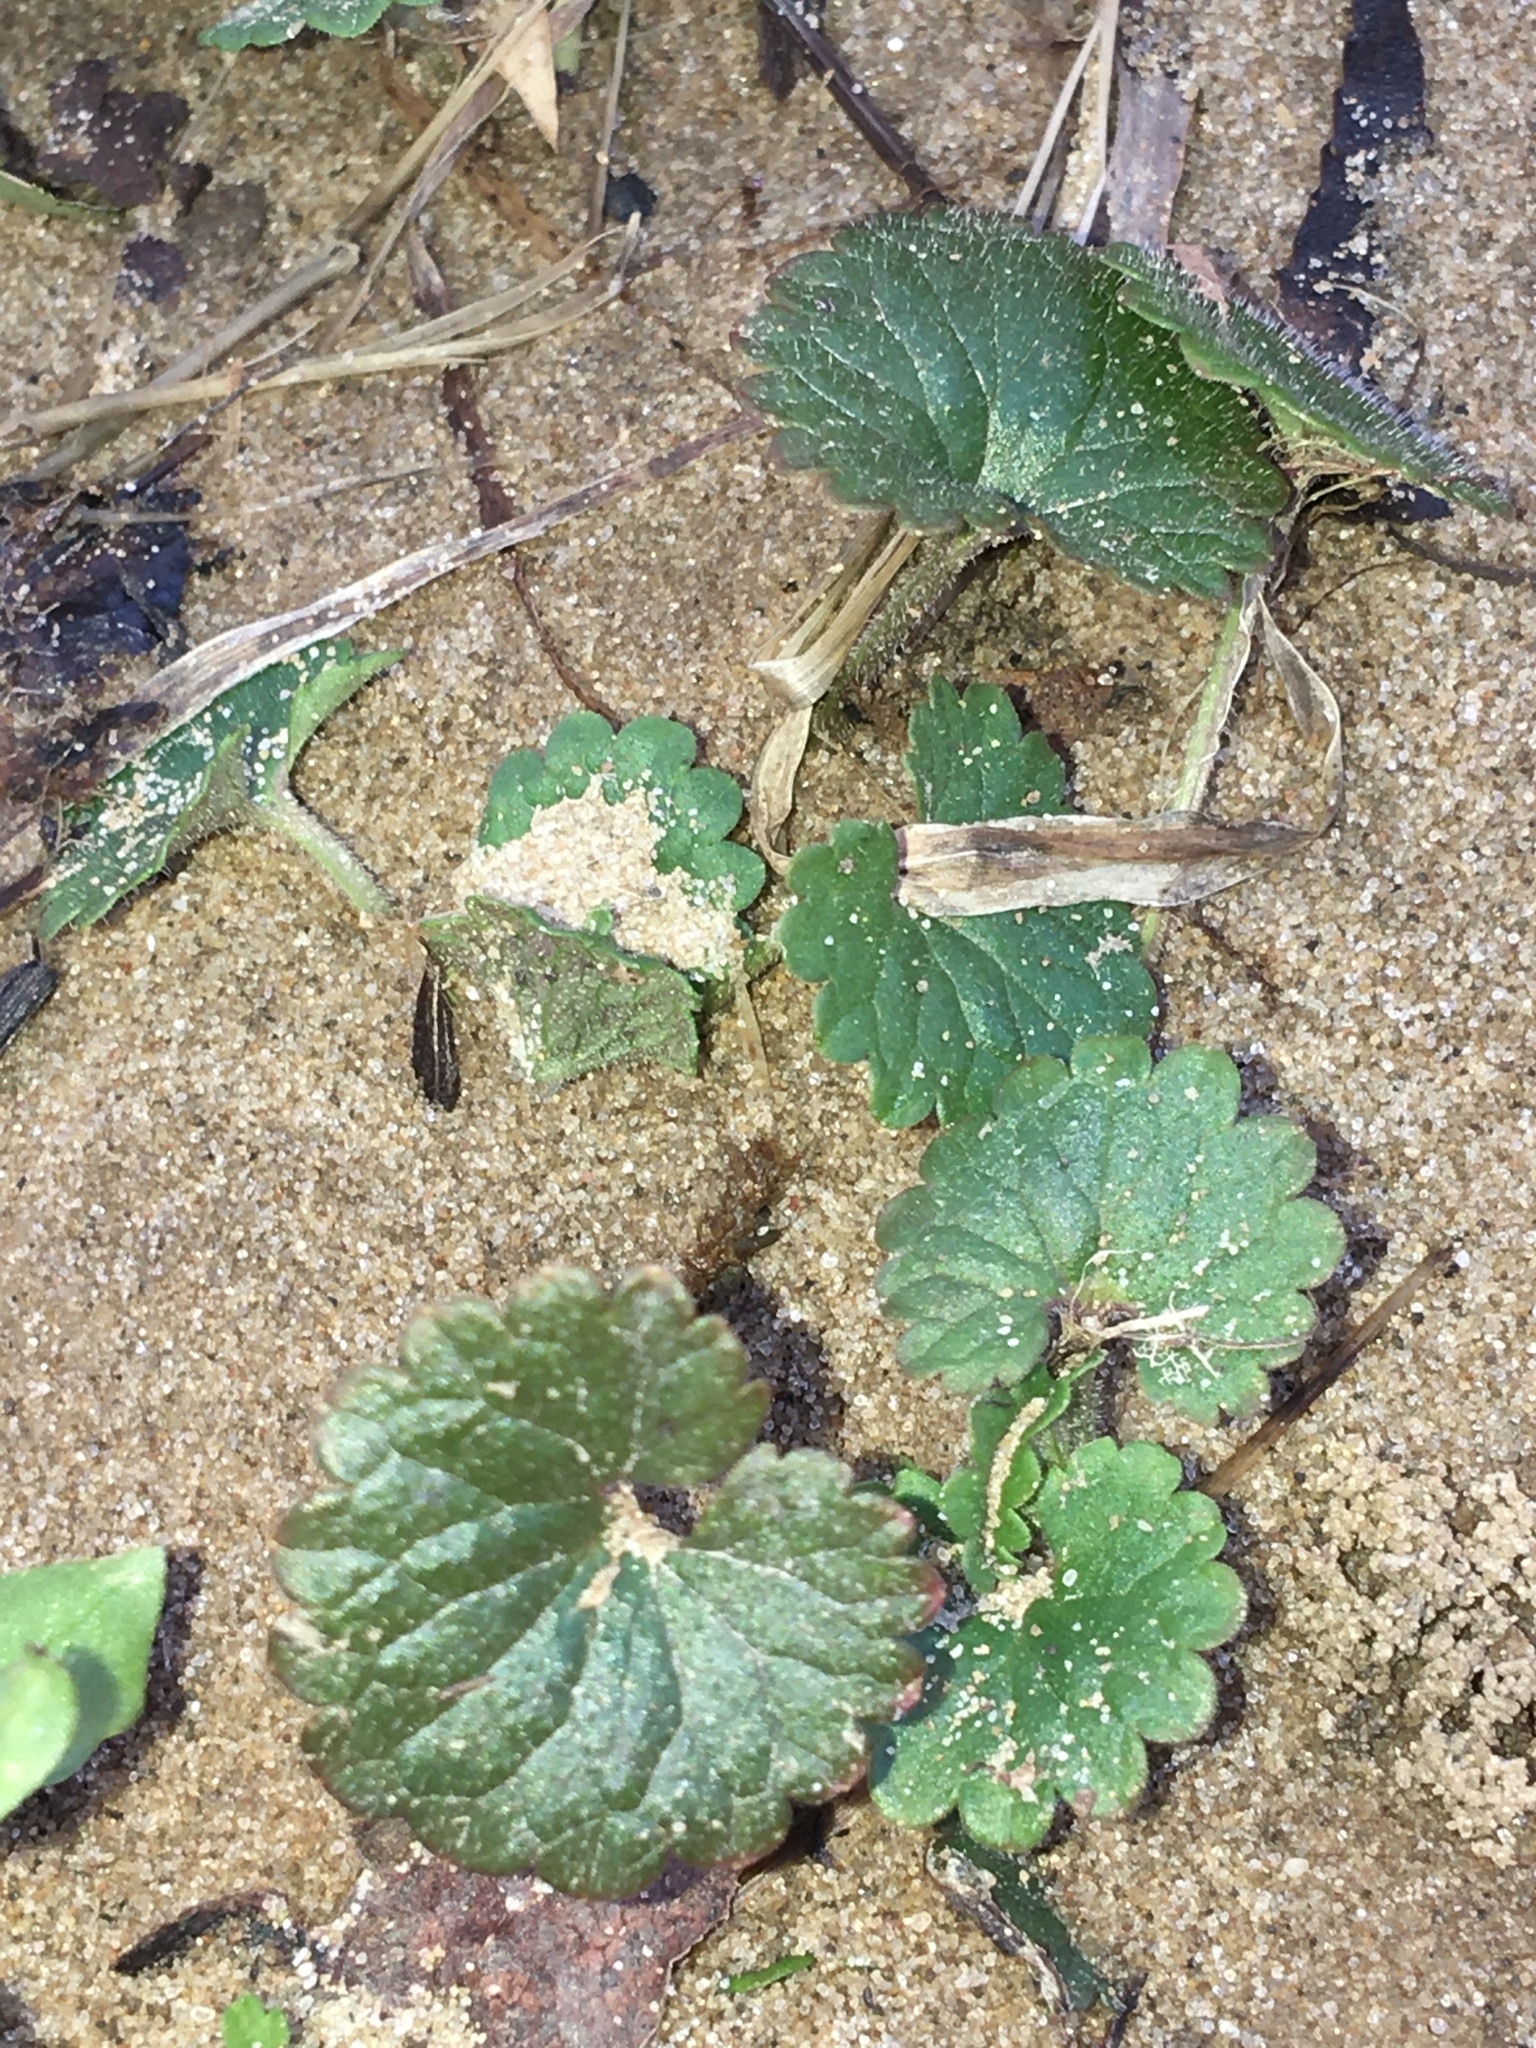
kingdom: Plantae
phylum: Tracheophyta
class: Magnoliopsida
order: Lamiales
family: Lamiaceae
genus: Glechoma
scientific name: Glechoma hederacea
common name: Ground ivy
